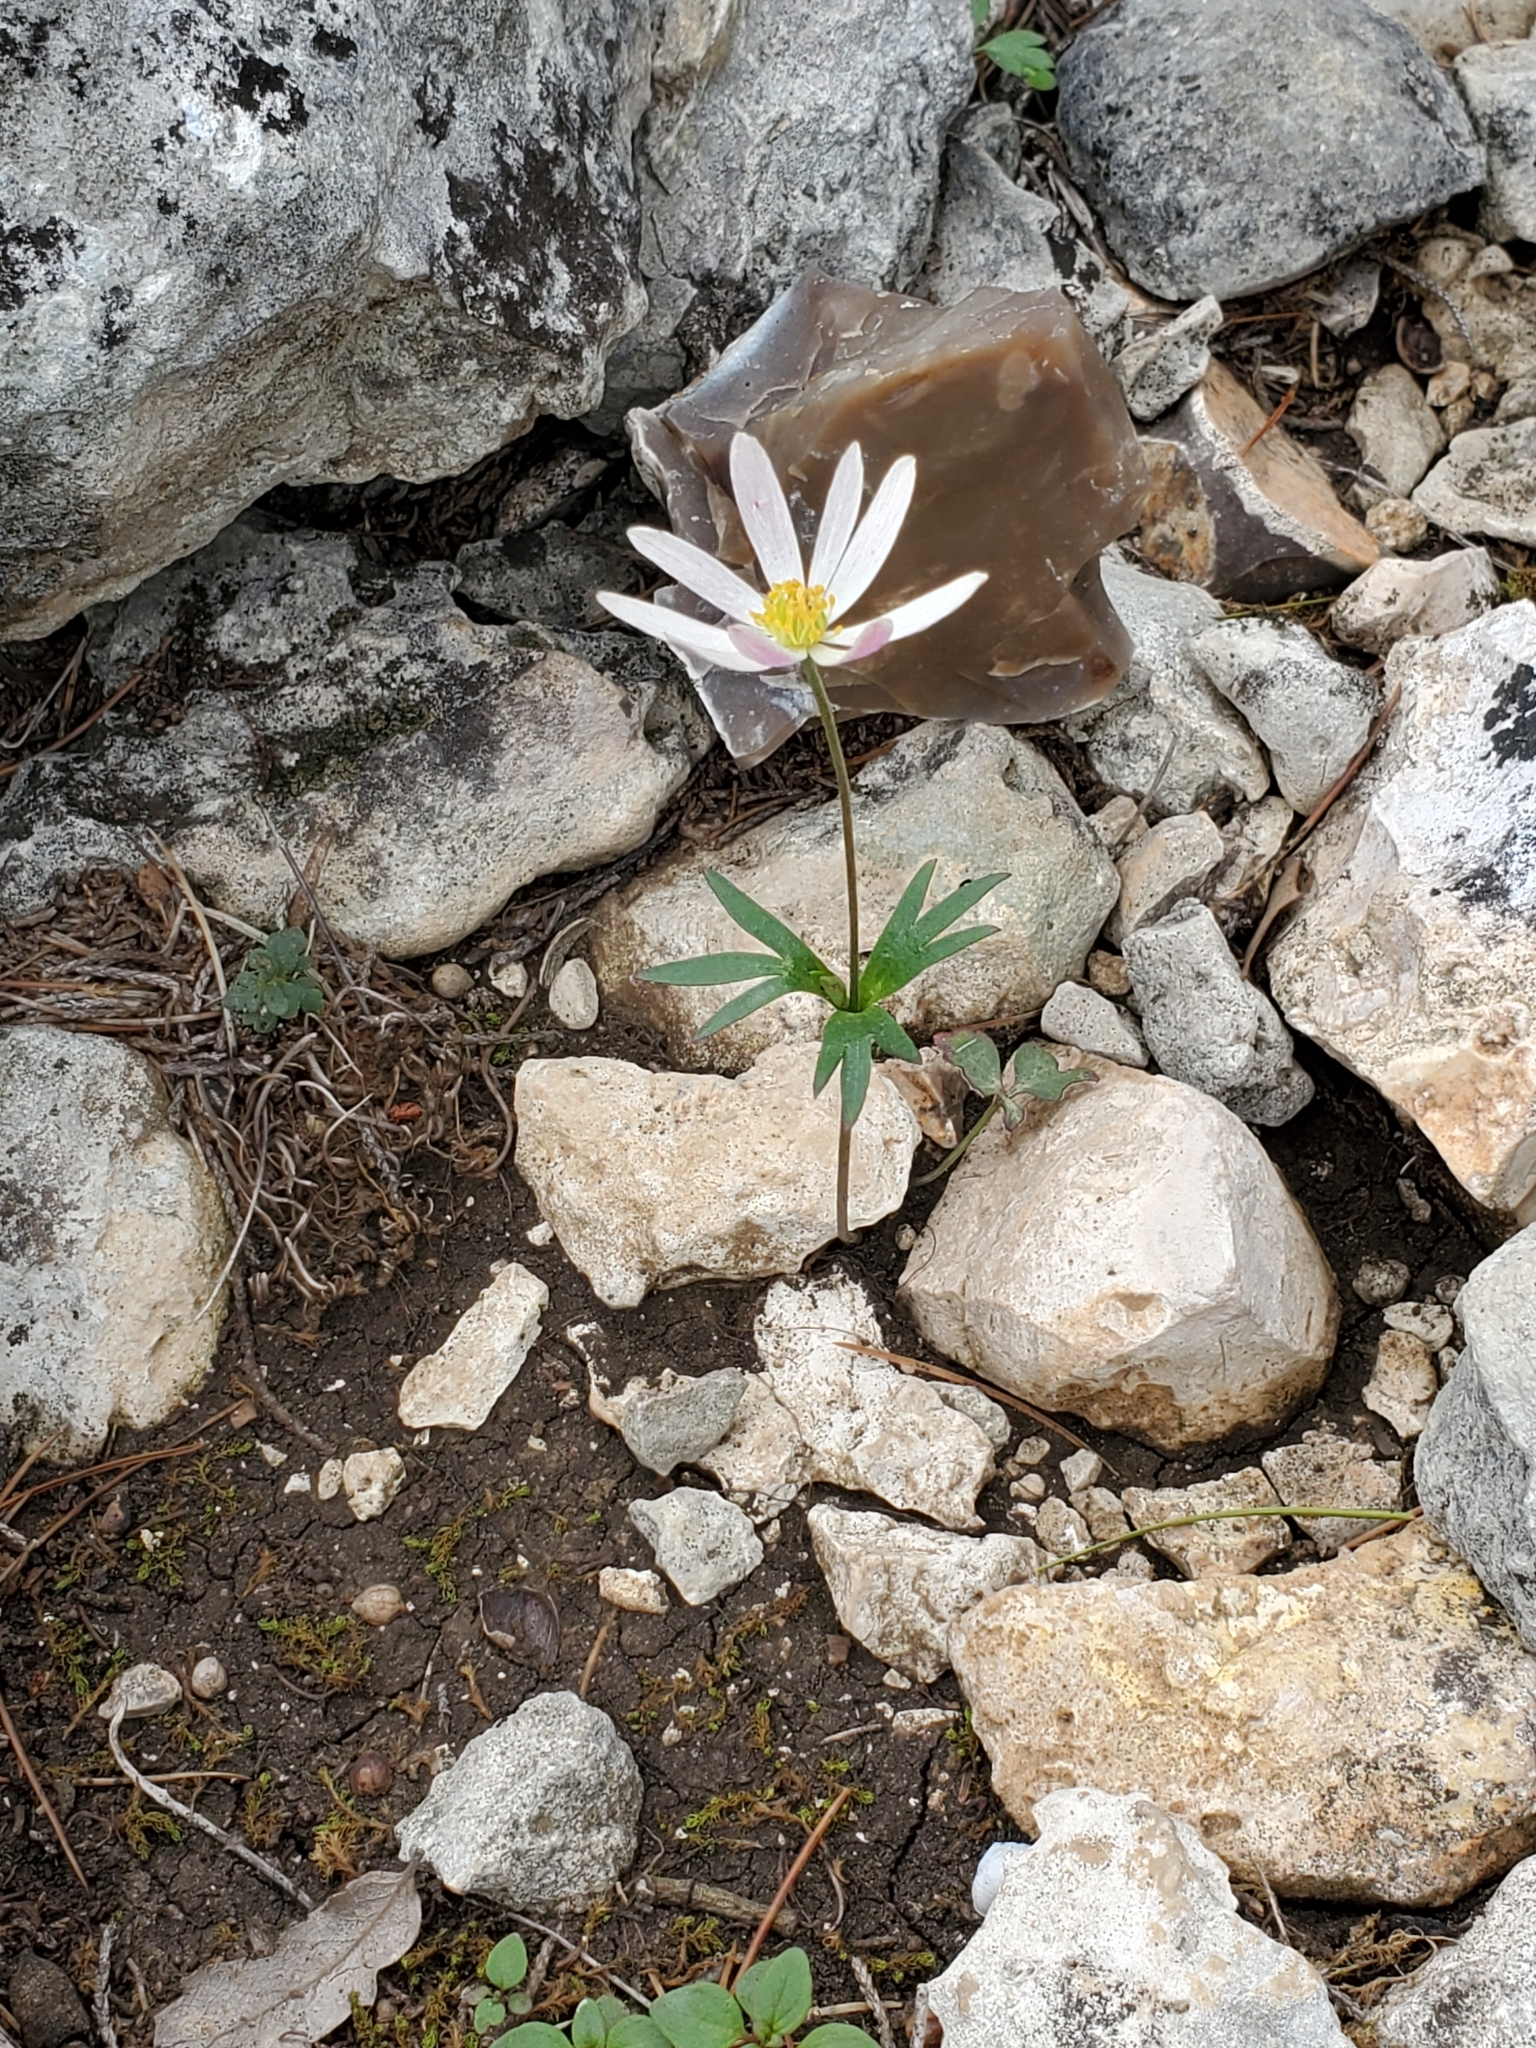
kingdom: Plantae
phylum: Tracheophyta
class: Magnoliopsida
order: Ranunculales
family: Ranunculaceae
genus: Anemone
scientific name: Anemone edwardsiana
